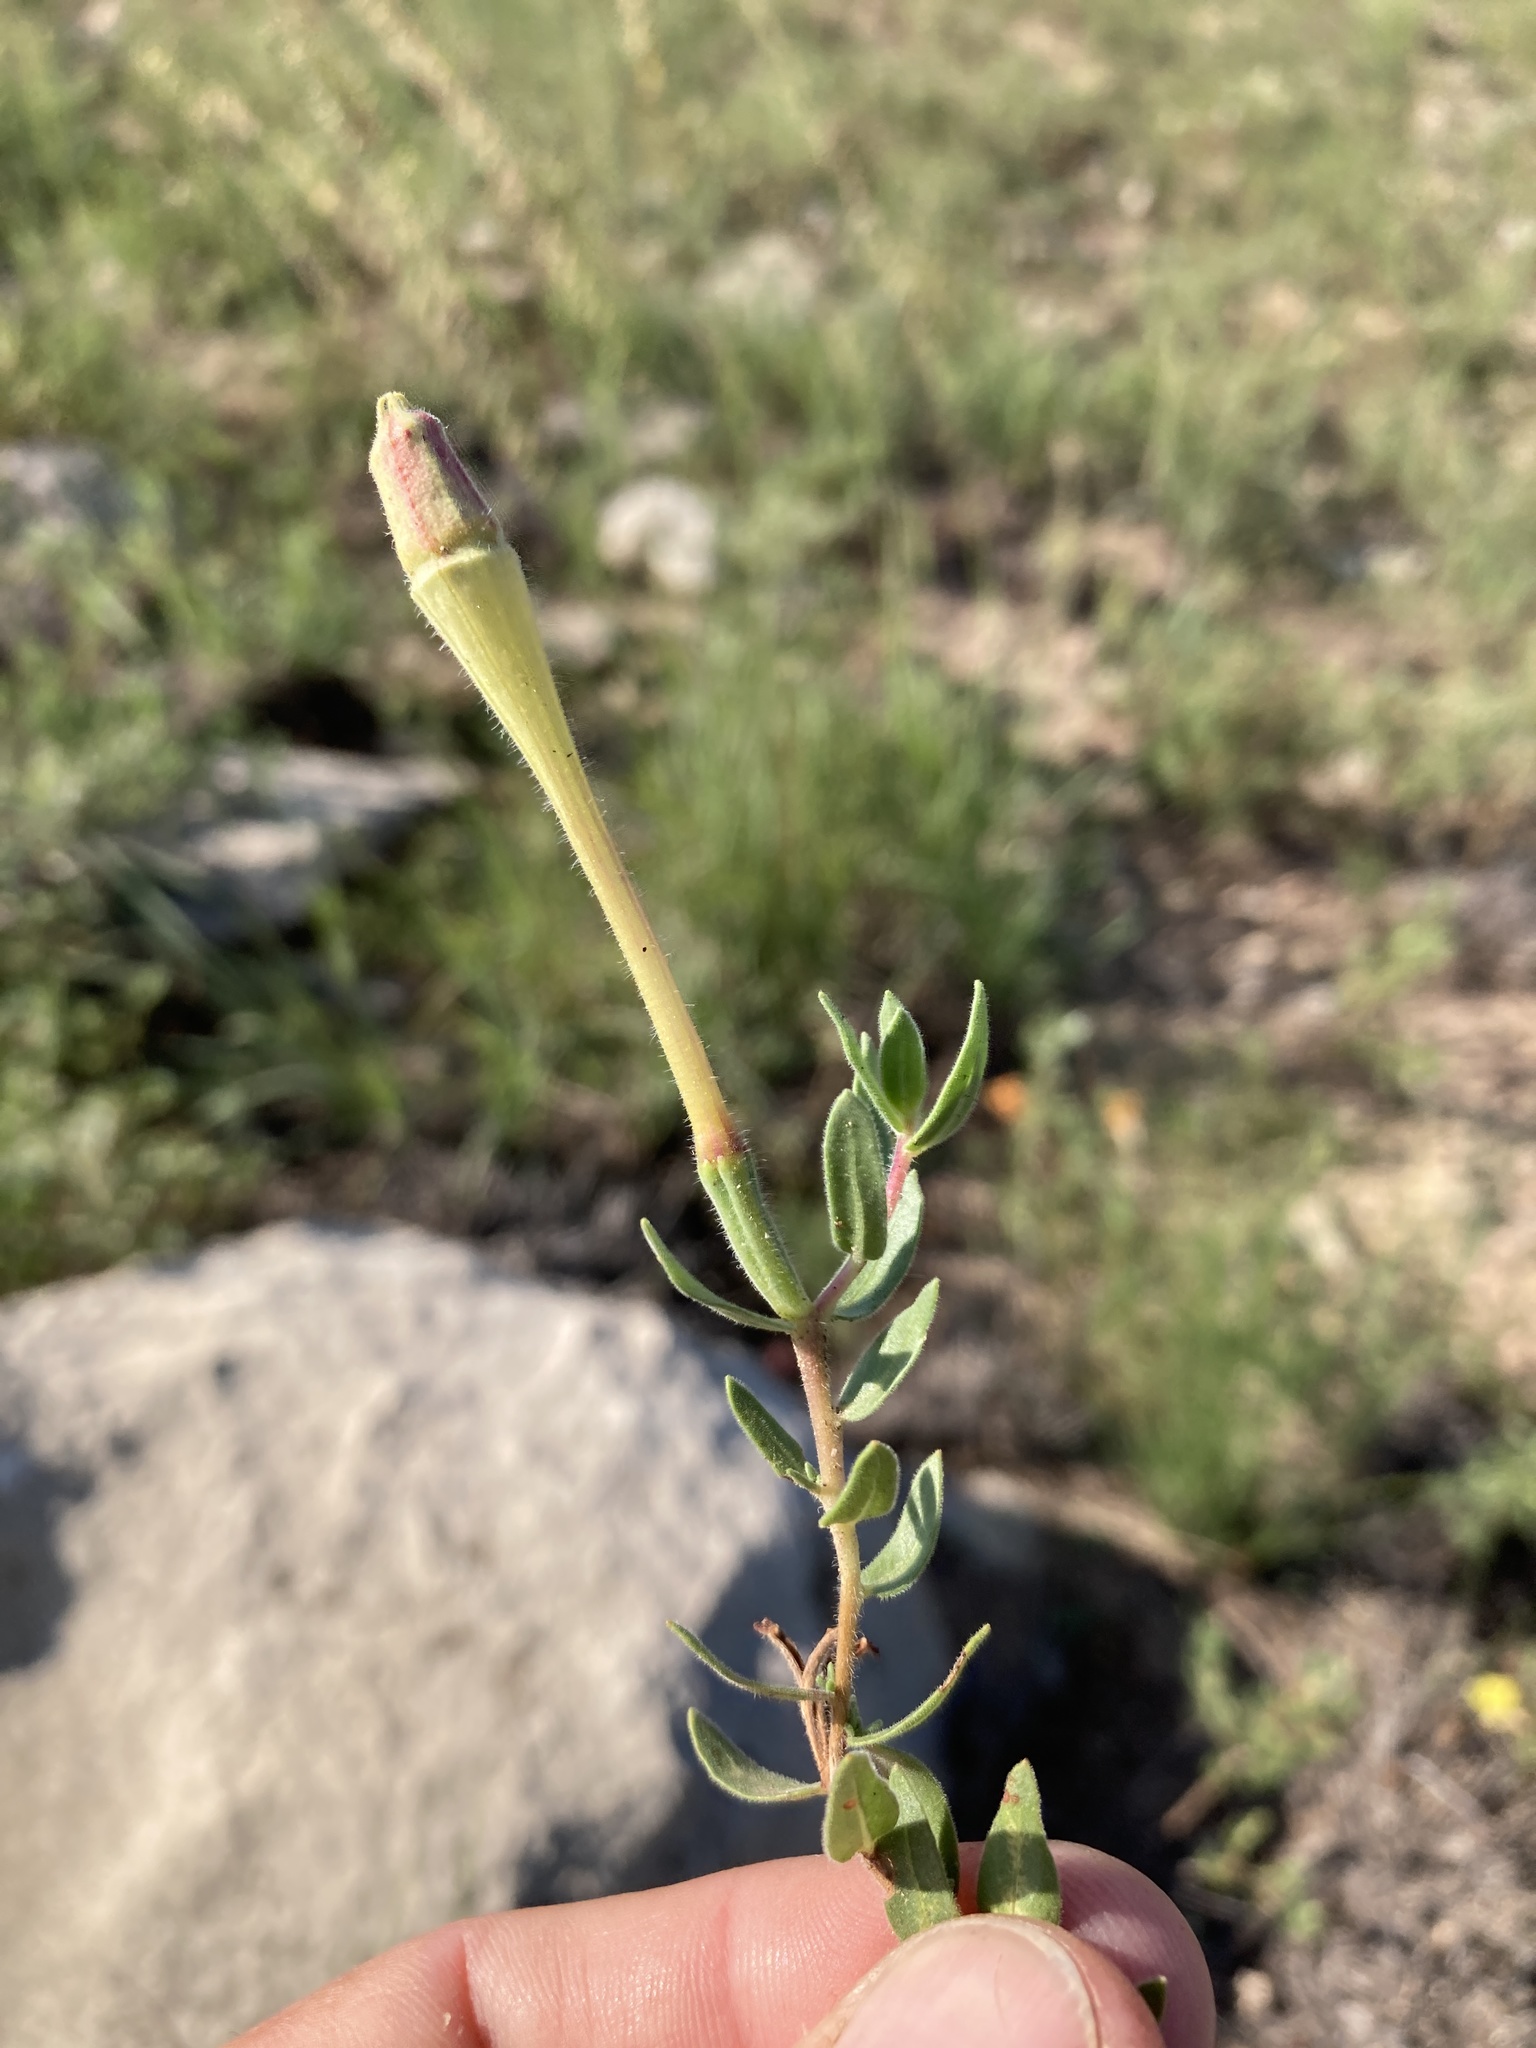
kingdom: Plantae
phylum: Tracheophyta
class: Magnoliopsida
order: Myrtales
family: Onagraceae
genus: Oenothera
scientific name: Oenothera hartwegii
